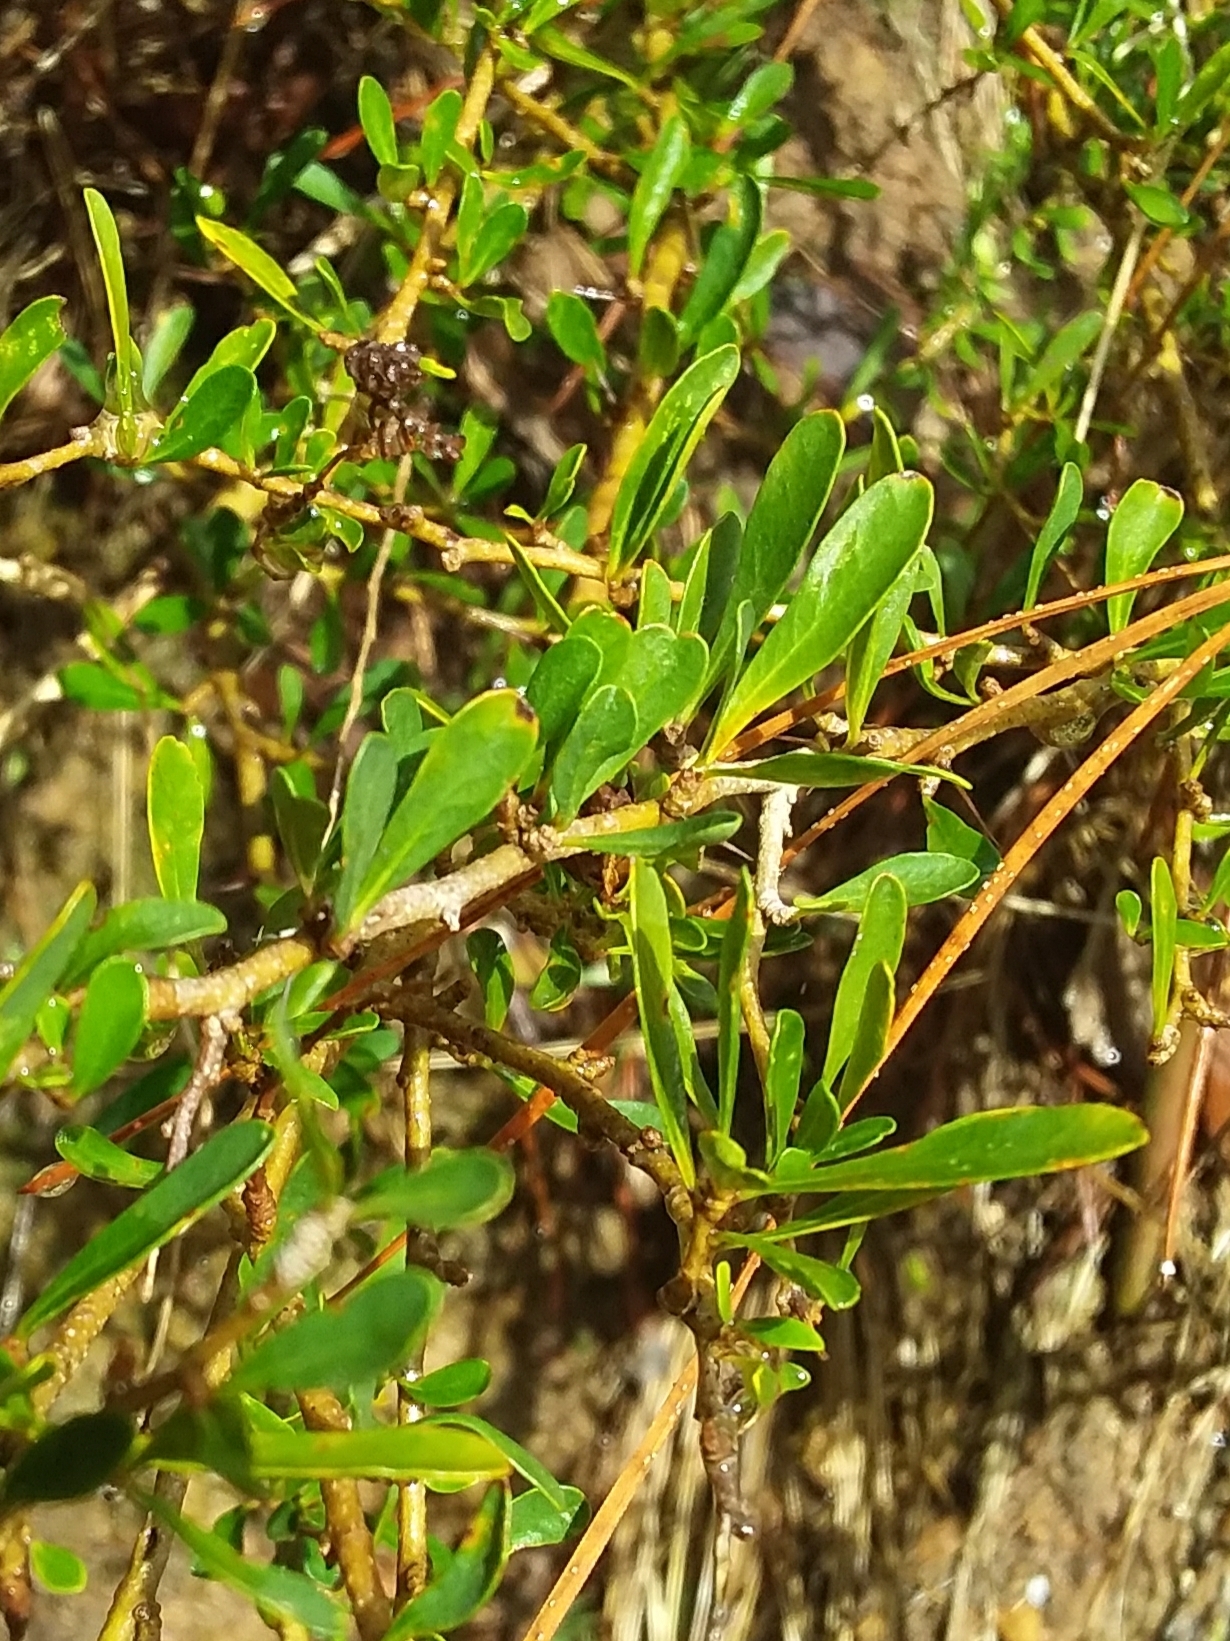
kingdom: Plantae
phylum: Tracheophyta
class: Magnoliopsida
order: Apiales
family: Pittosporaceae
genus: Bursaria
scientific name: Bursaria spinosa
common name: Australian blackthorn
